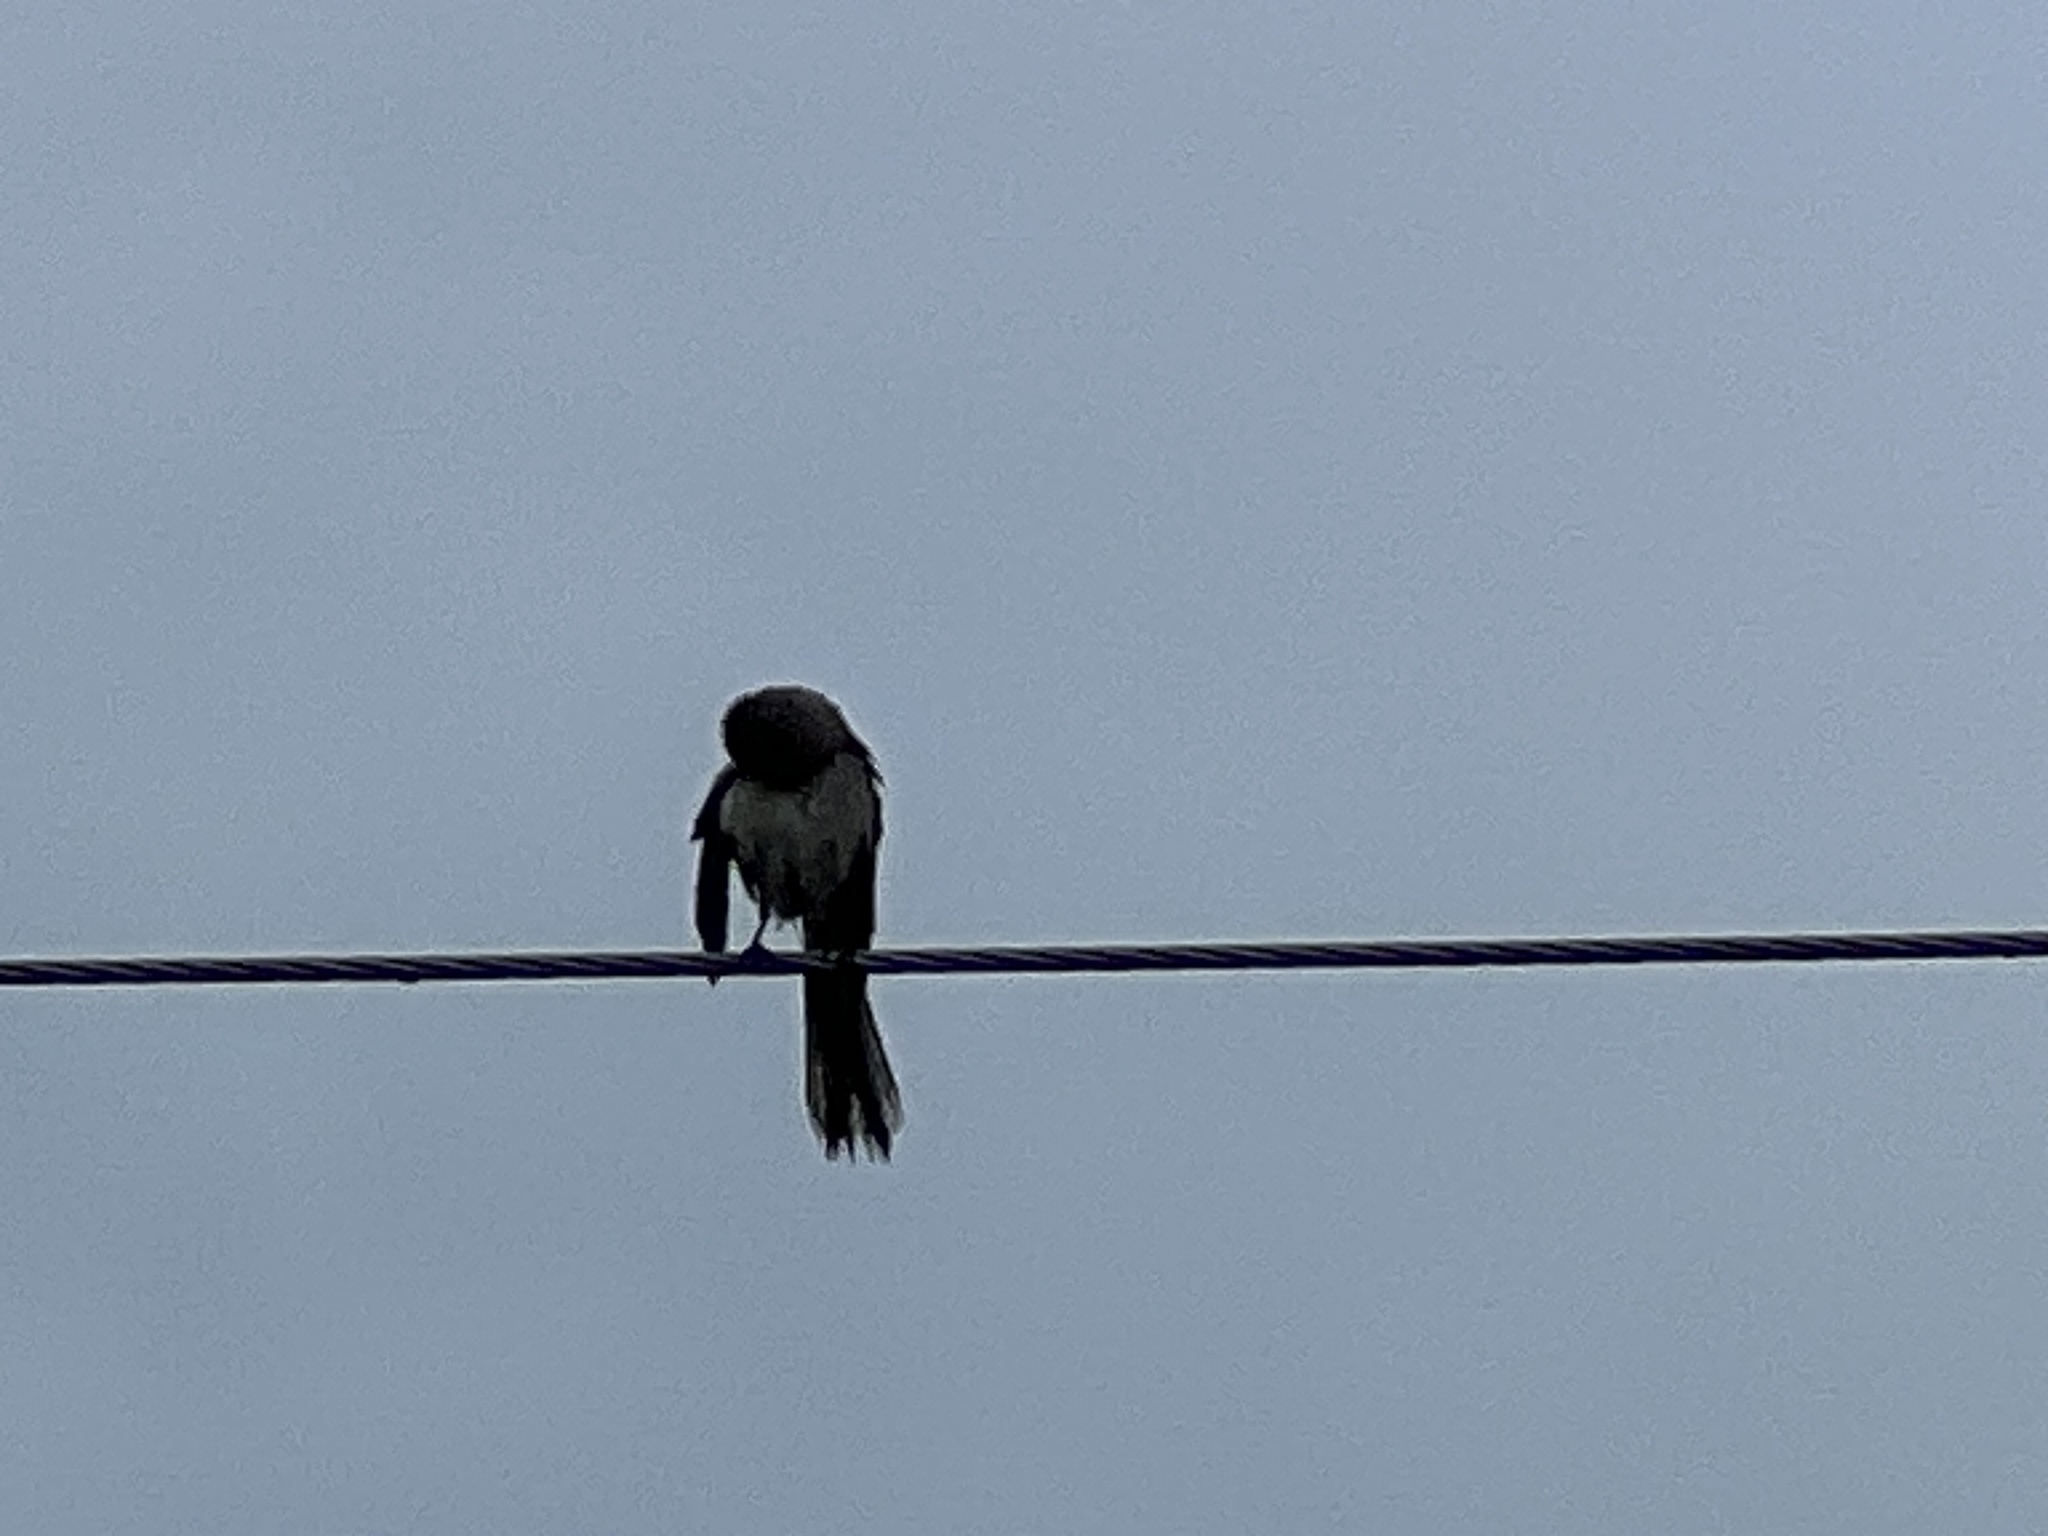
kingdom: Animalia
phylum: Chordata
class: Aves
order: Passeriformes
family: Mimidae
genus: Mimus
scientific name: Mimus polyglottos
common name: Northern mockingbird
